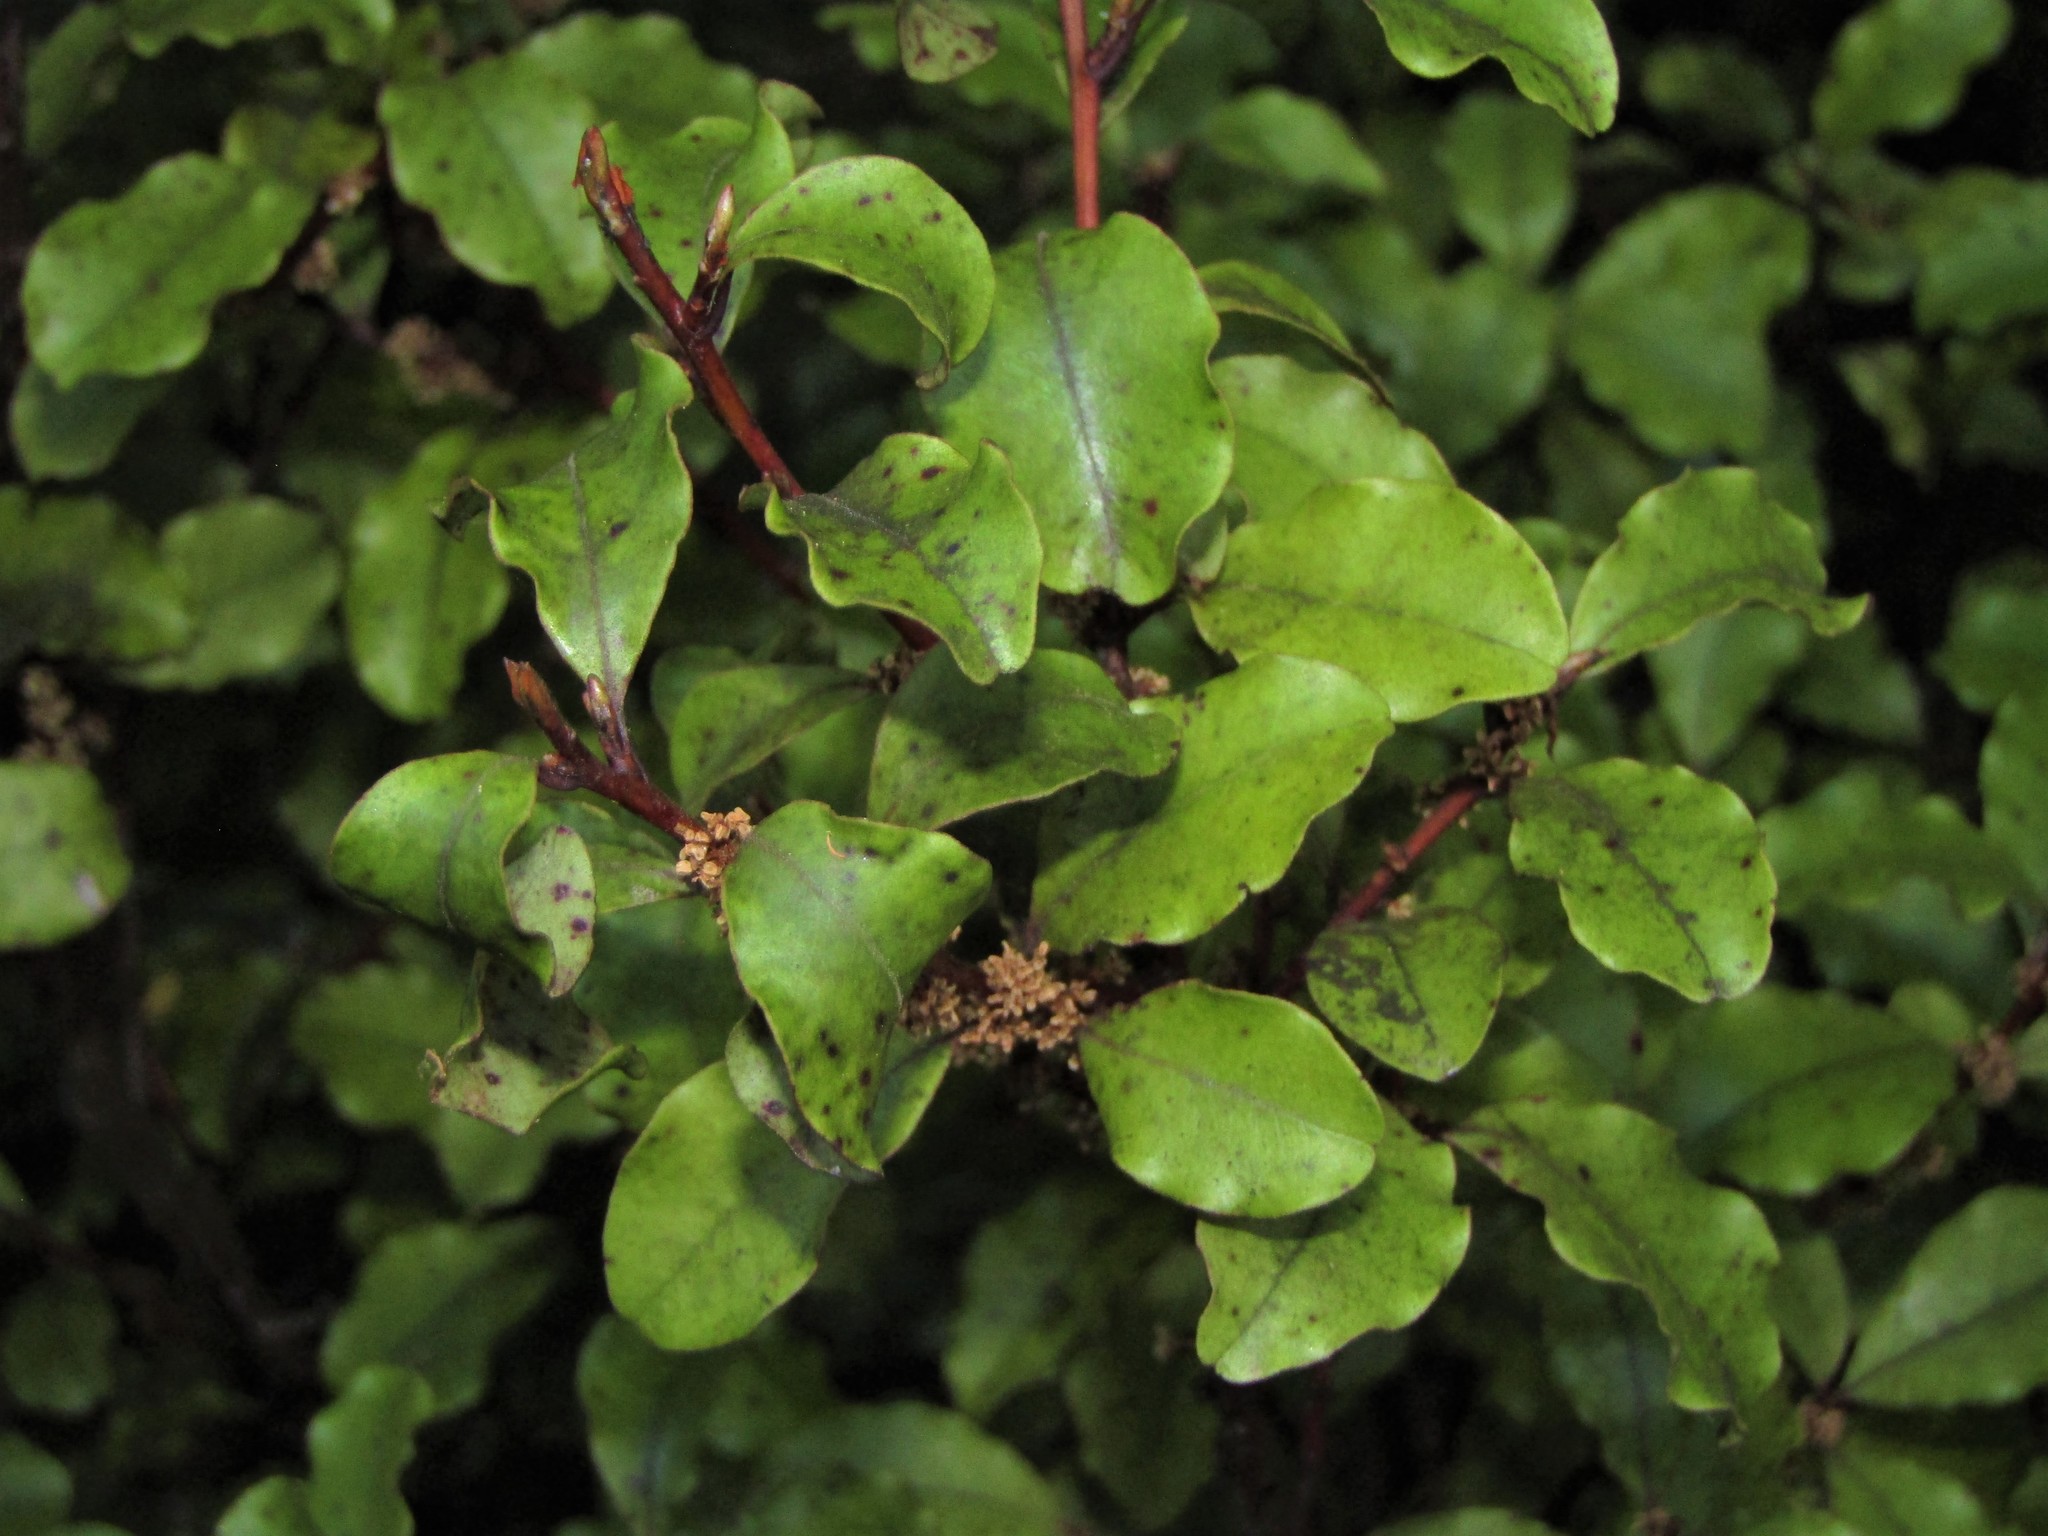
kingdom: Plantae
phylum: Tracheophyta
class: Magnoliopsida
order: Ericales
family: Primulaceae
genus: Myrsine
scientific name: Myrsine australis
